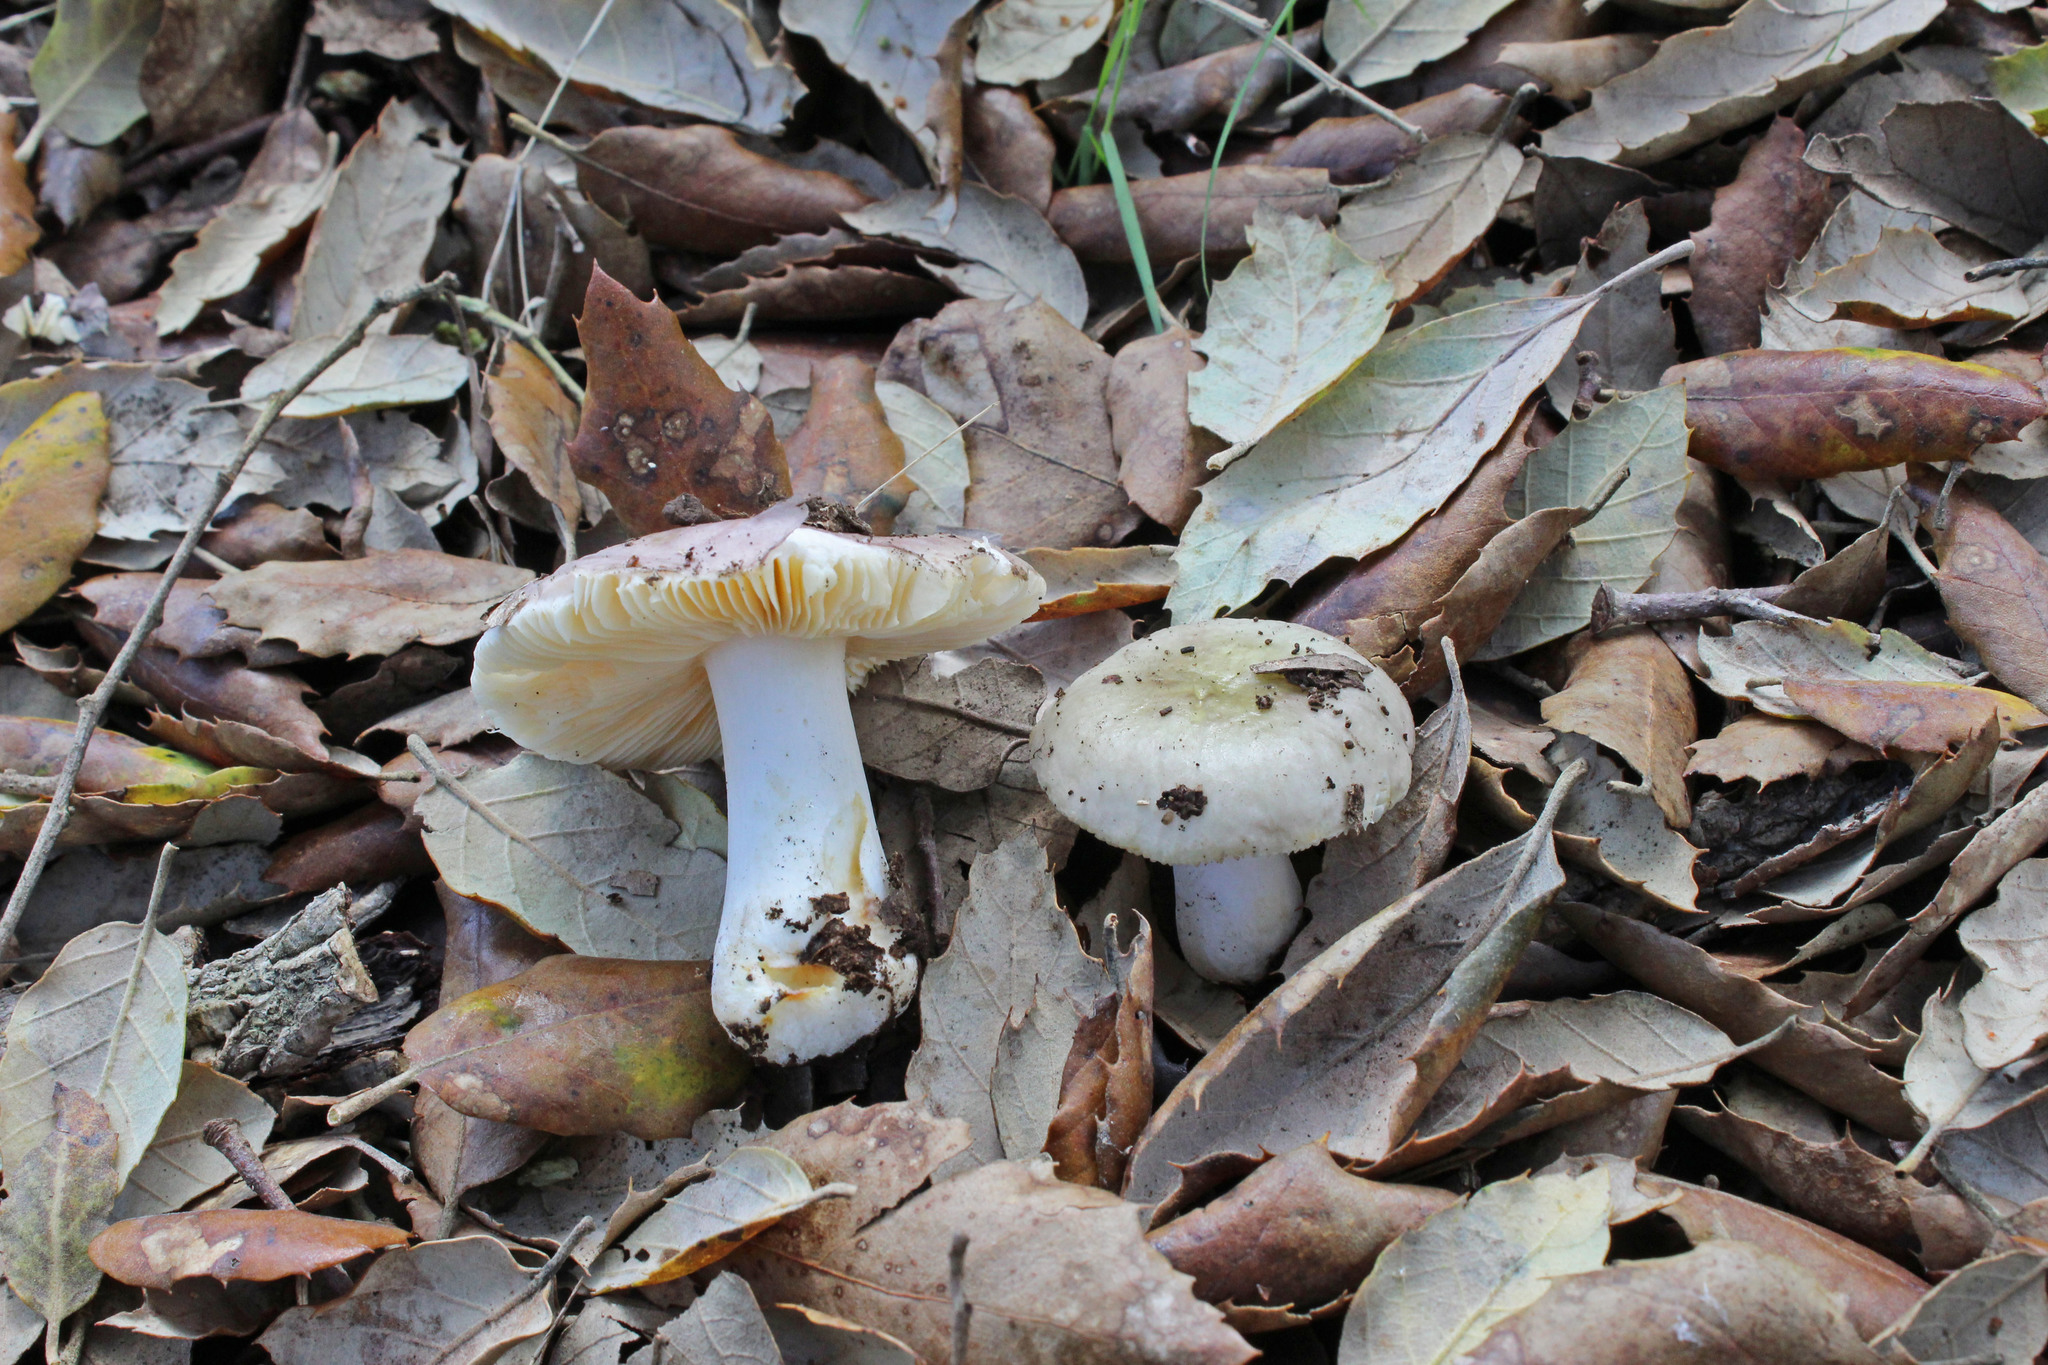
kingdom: Fungi
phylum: Basidiomycota
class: Agaricomycetes
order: Russulales
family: Russulaceae
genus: Russula
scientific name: Russula odorata
